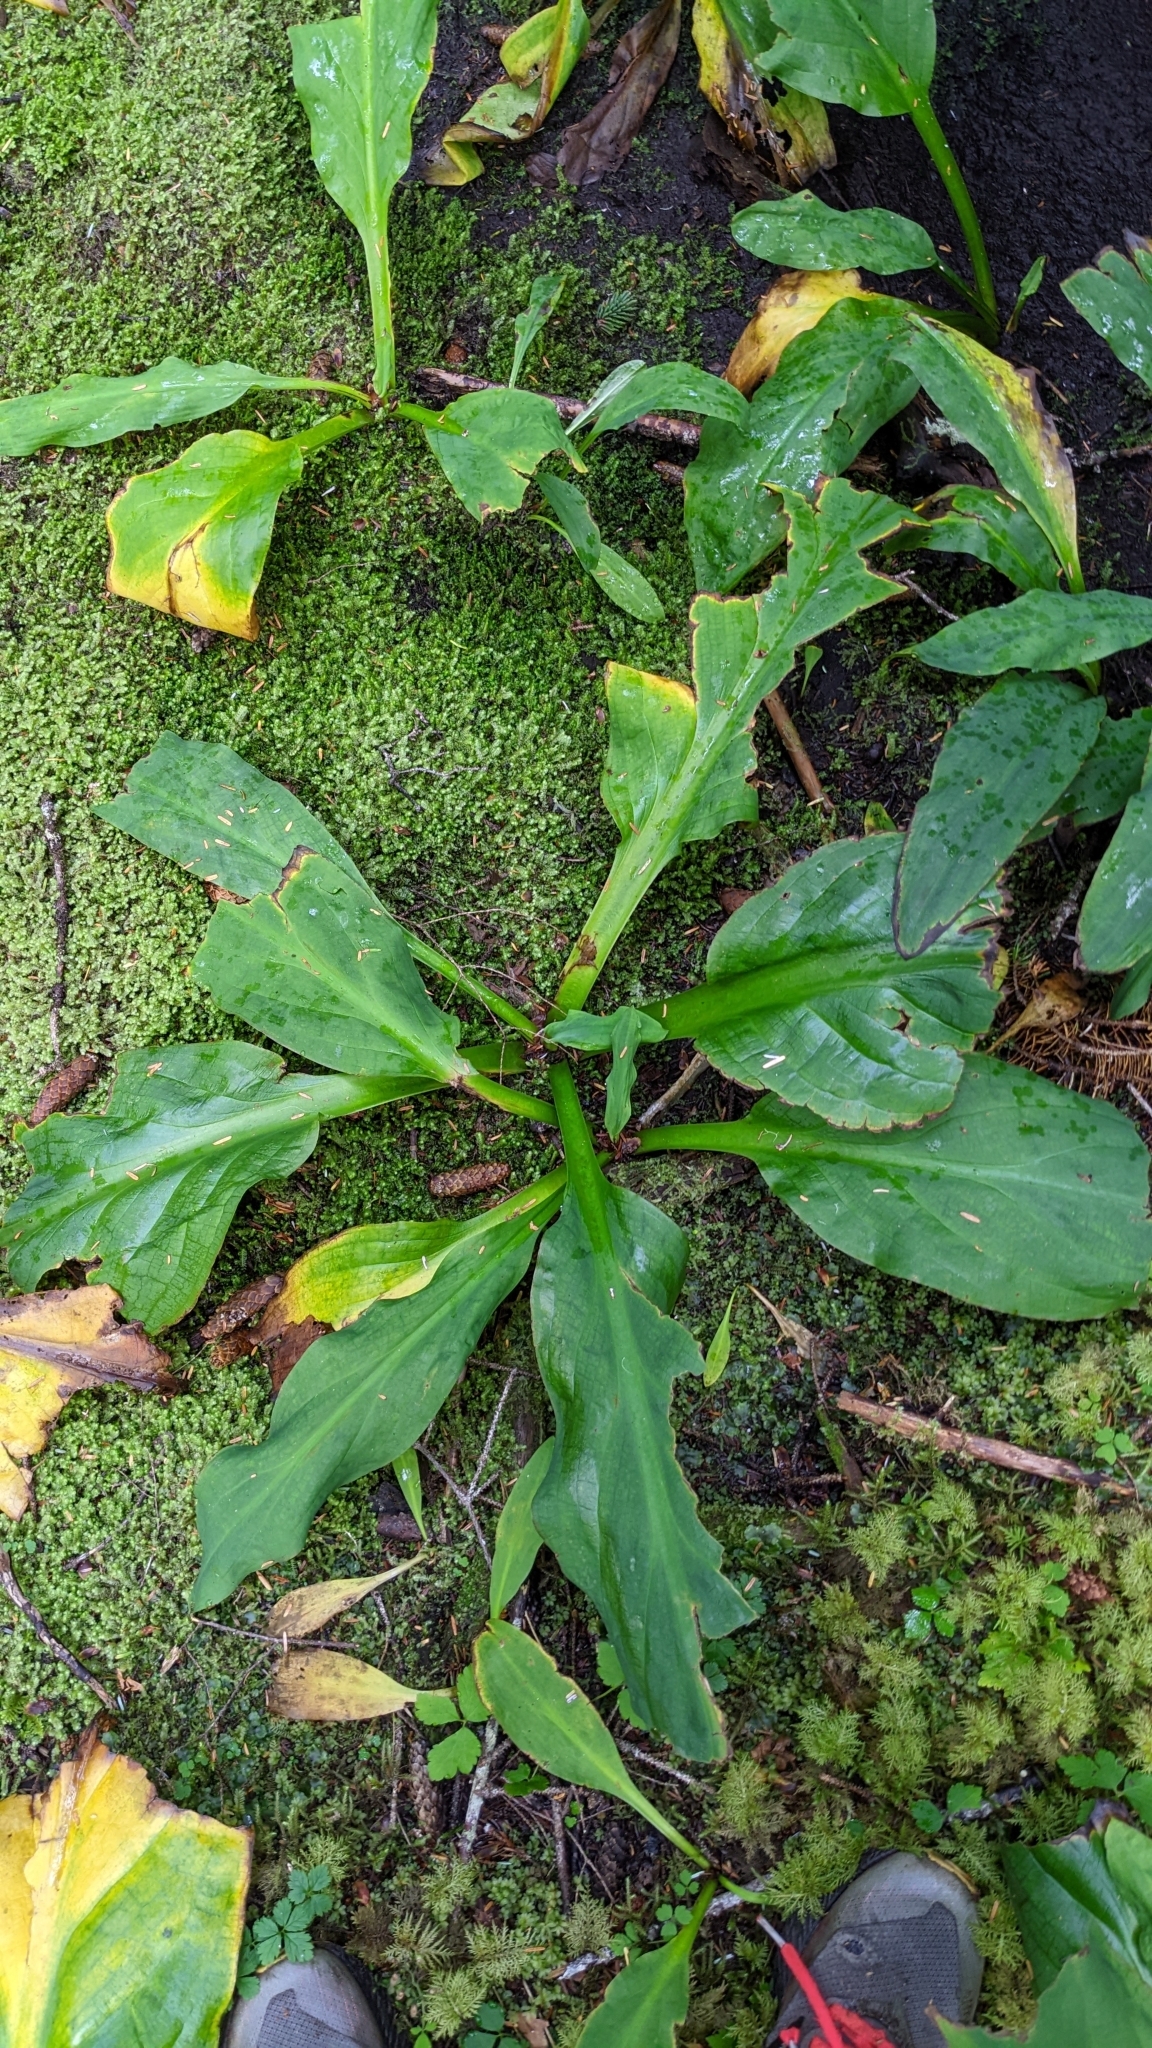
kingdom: Plantae
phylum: Tracheophyta
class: Liliopsida
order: Alismatales
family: Araceae
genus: Lysichiton
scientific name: Lysichiton americanus
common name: American skunk cabbage
